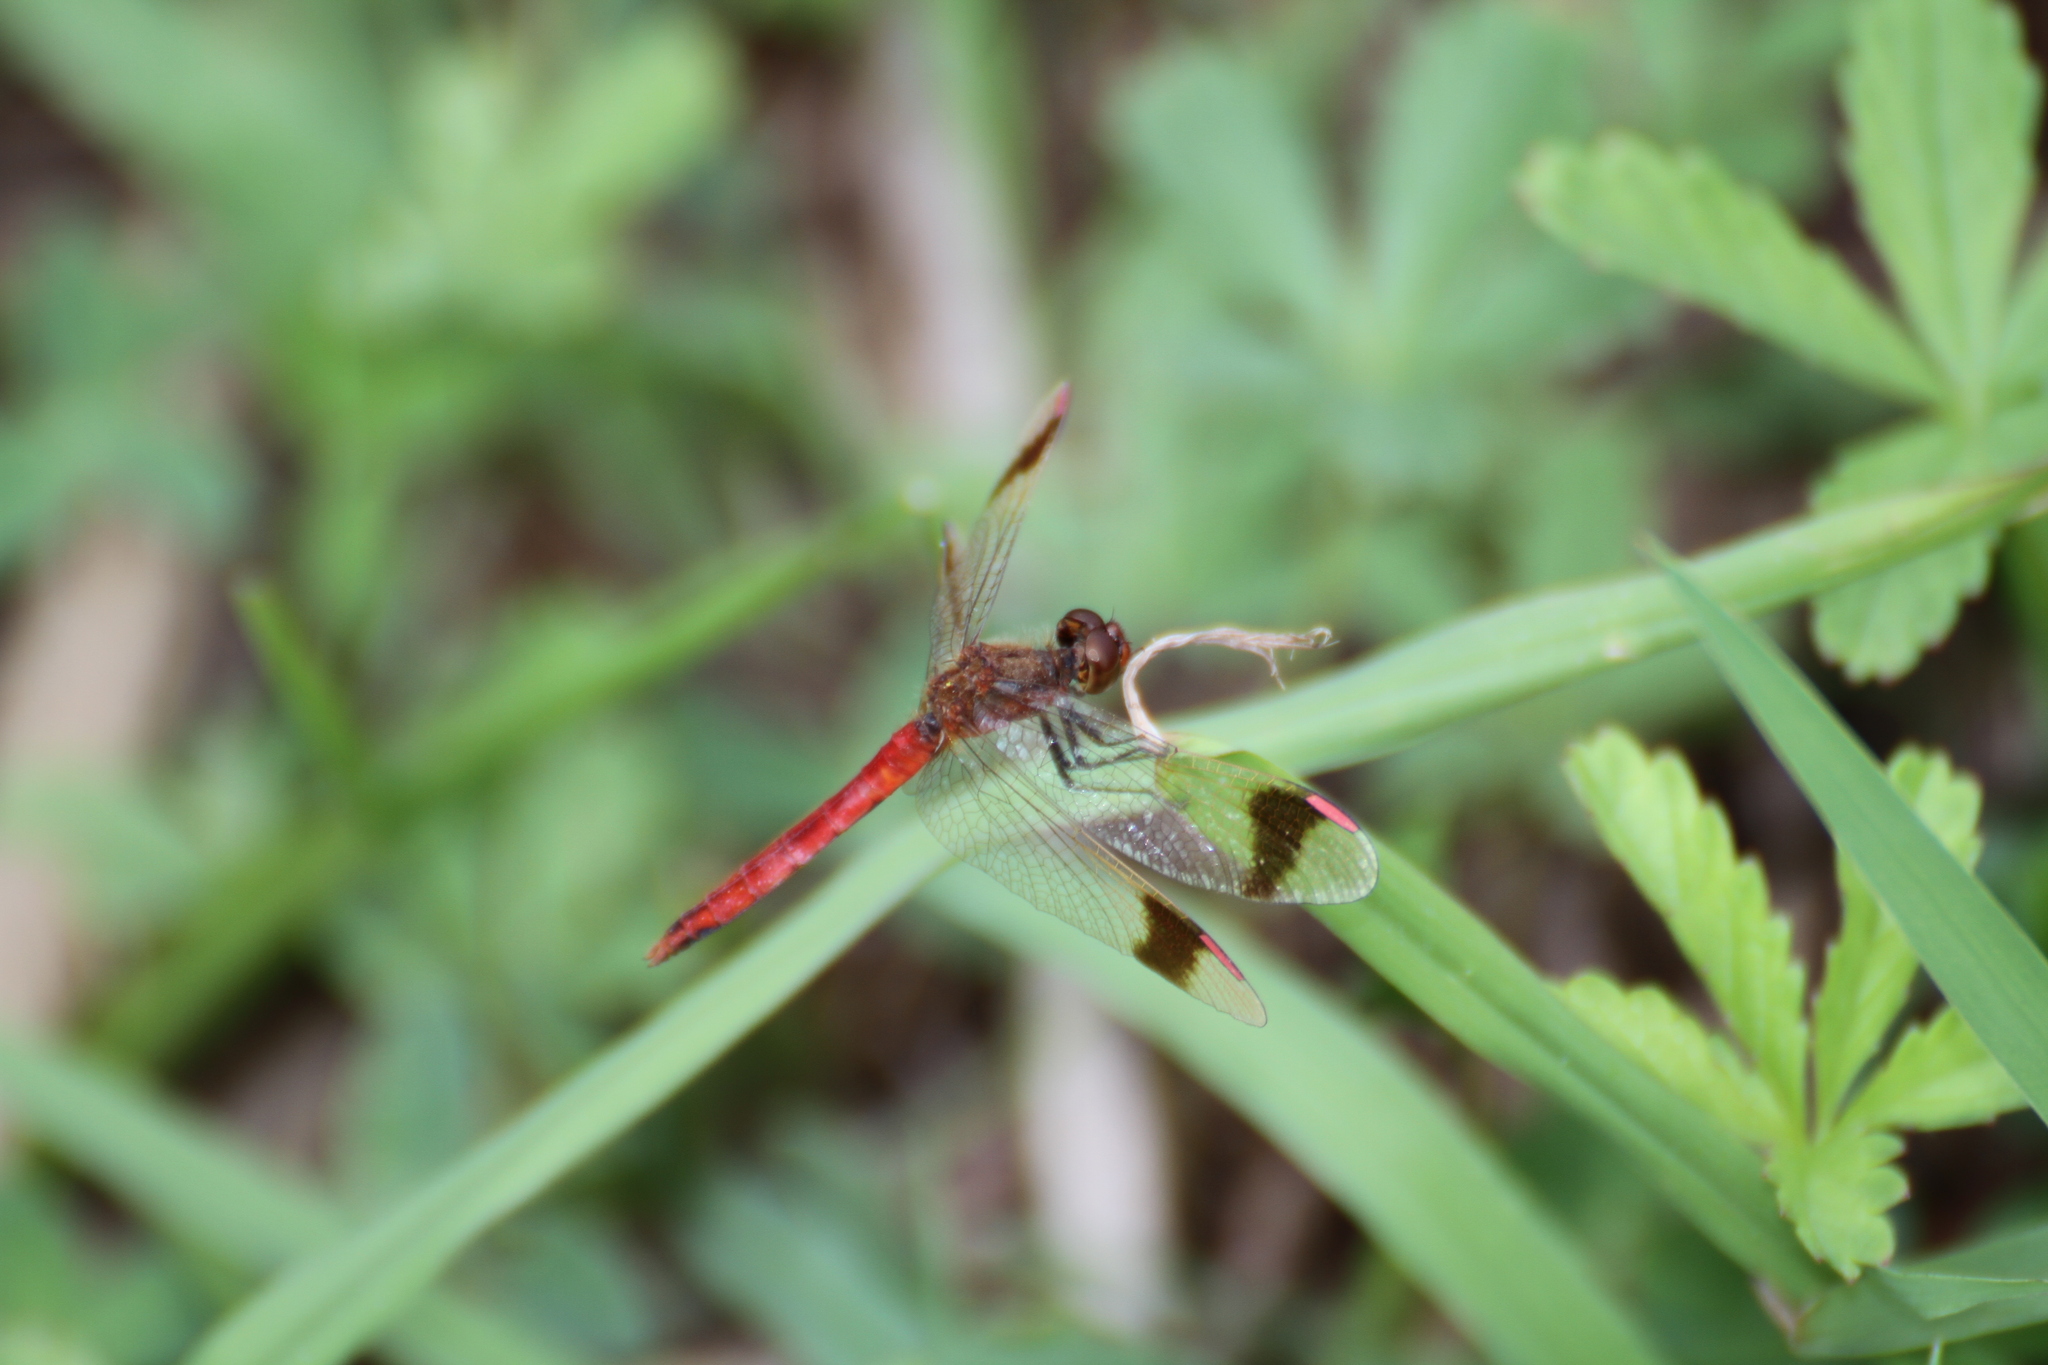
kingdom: Animalia
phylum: Arthropoda
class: Insecta
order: Odonata
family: Libellulidae
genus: Sympetrum
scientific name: Sympetrum pedemontanum
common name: Banded darter
